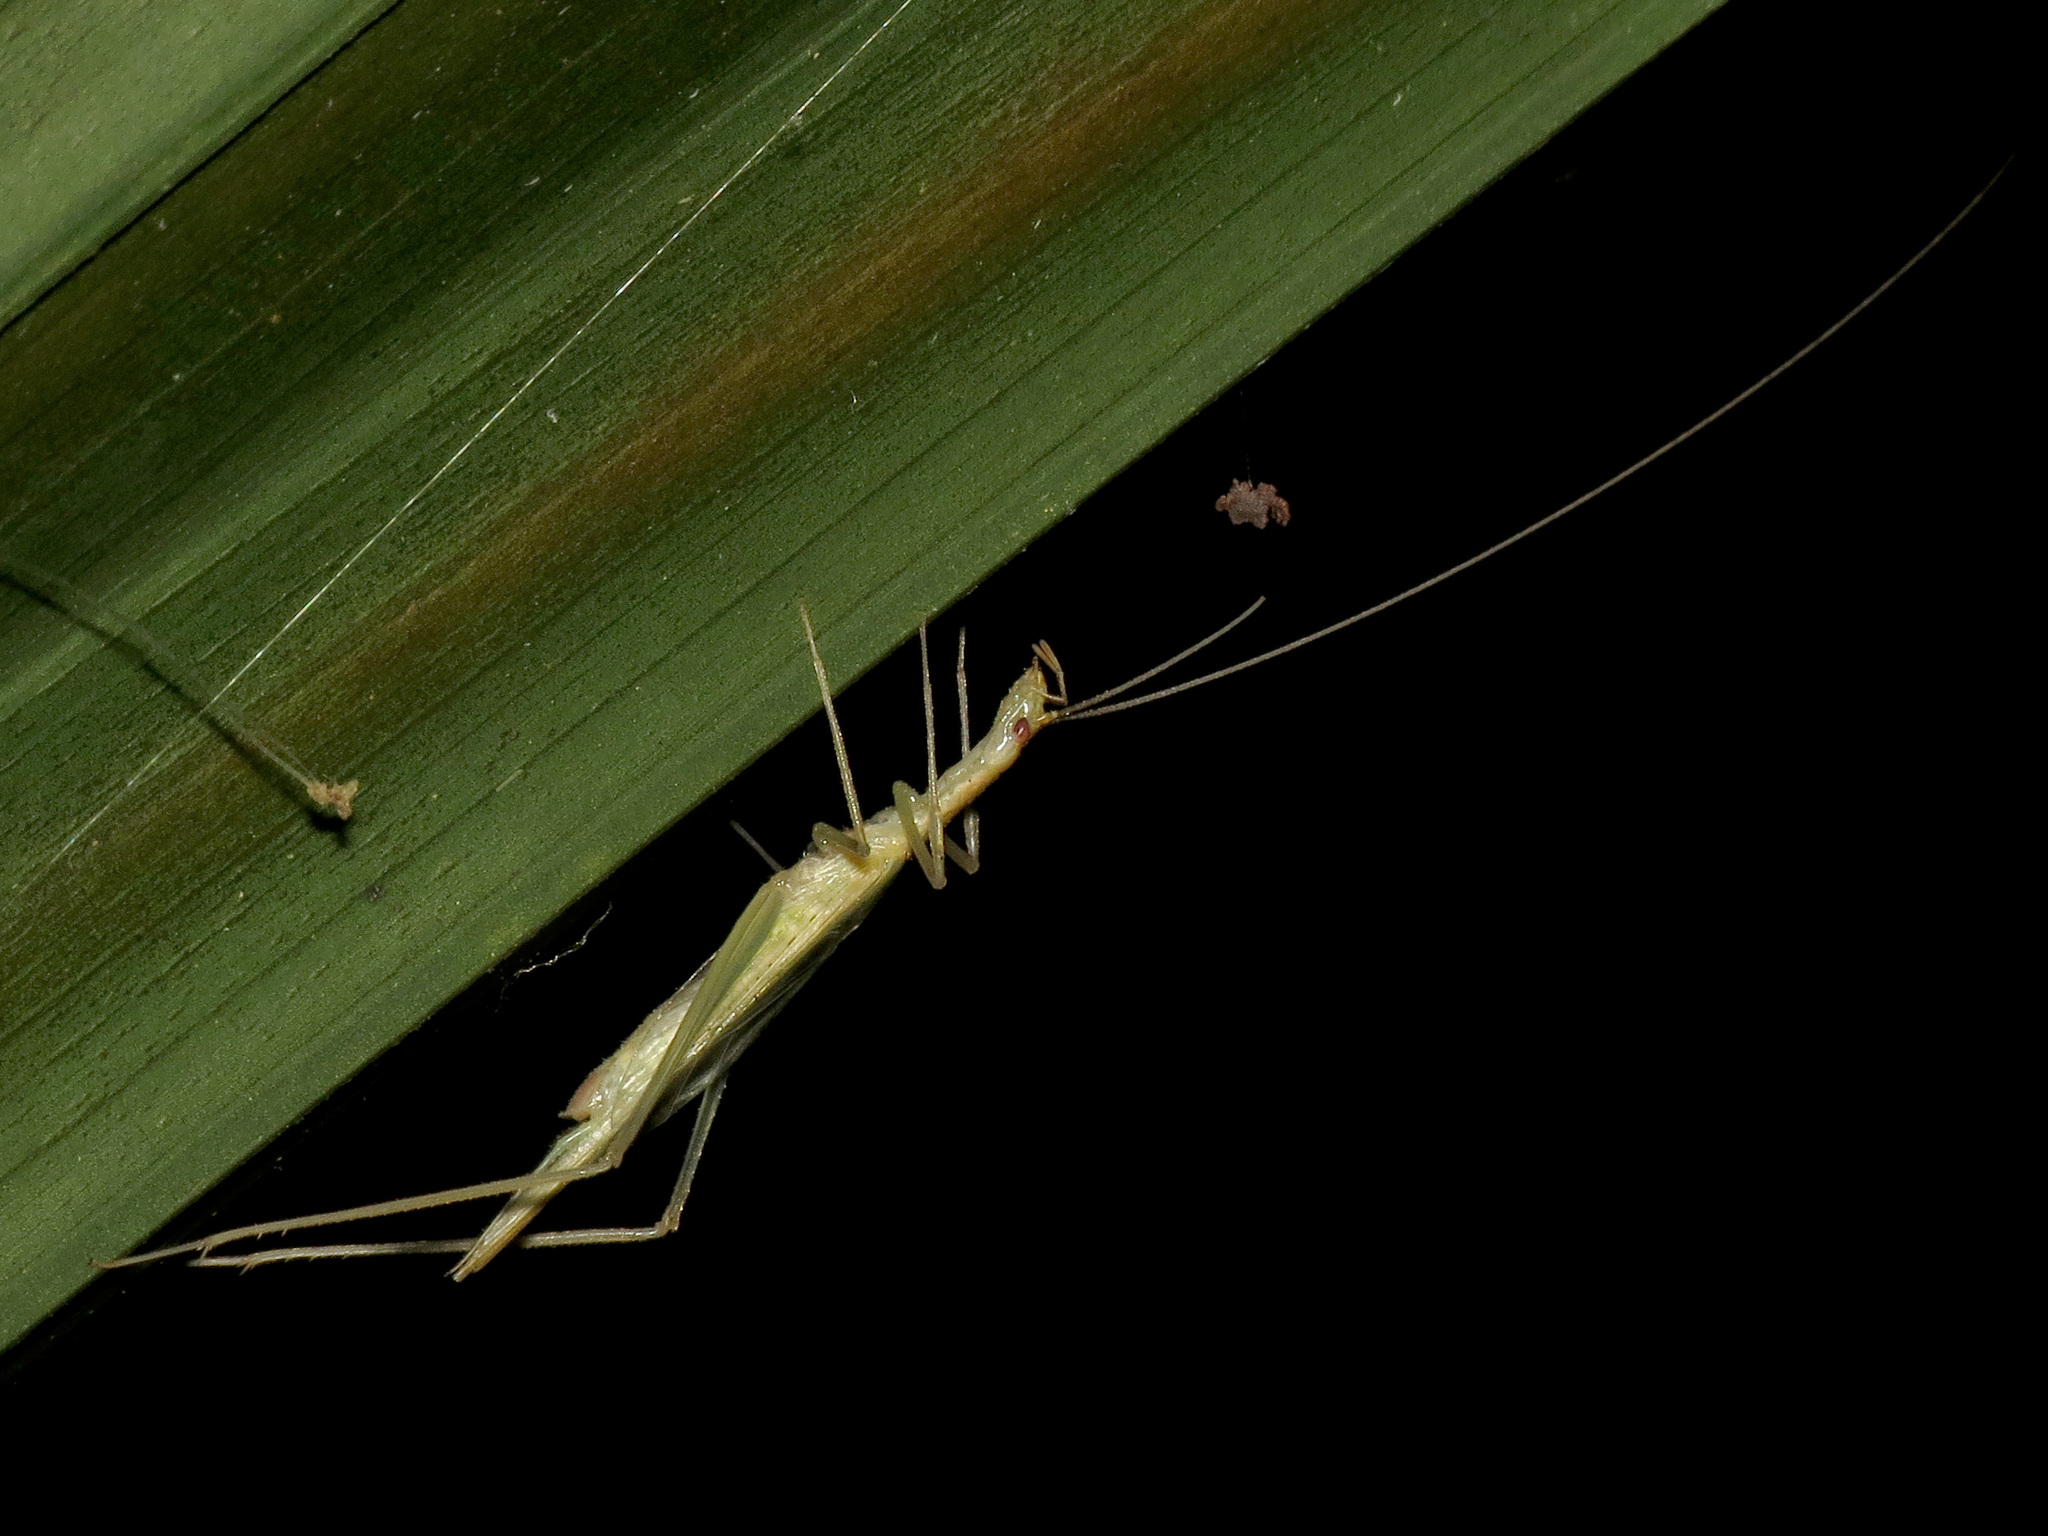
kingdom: Animalia
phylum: Arthropoda
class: Insecta
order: Orthoptera
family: Gryllidae
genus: Oecanthus
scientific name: Oecanthus prolatus
